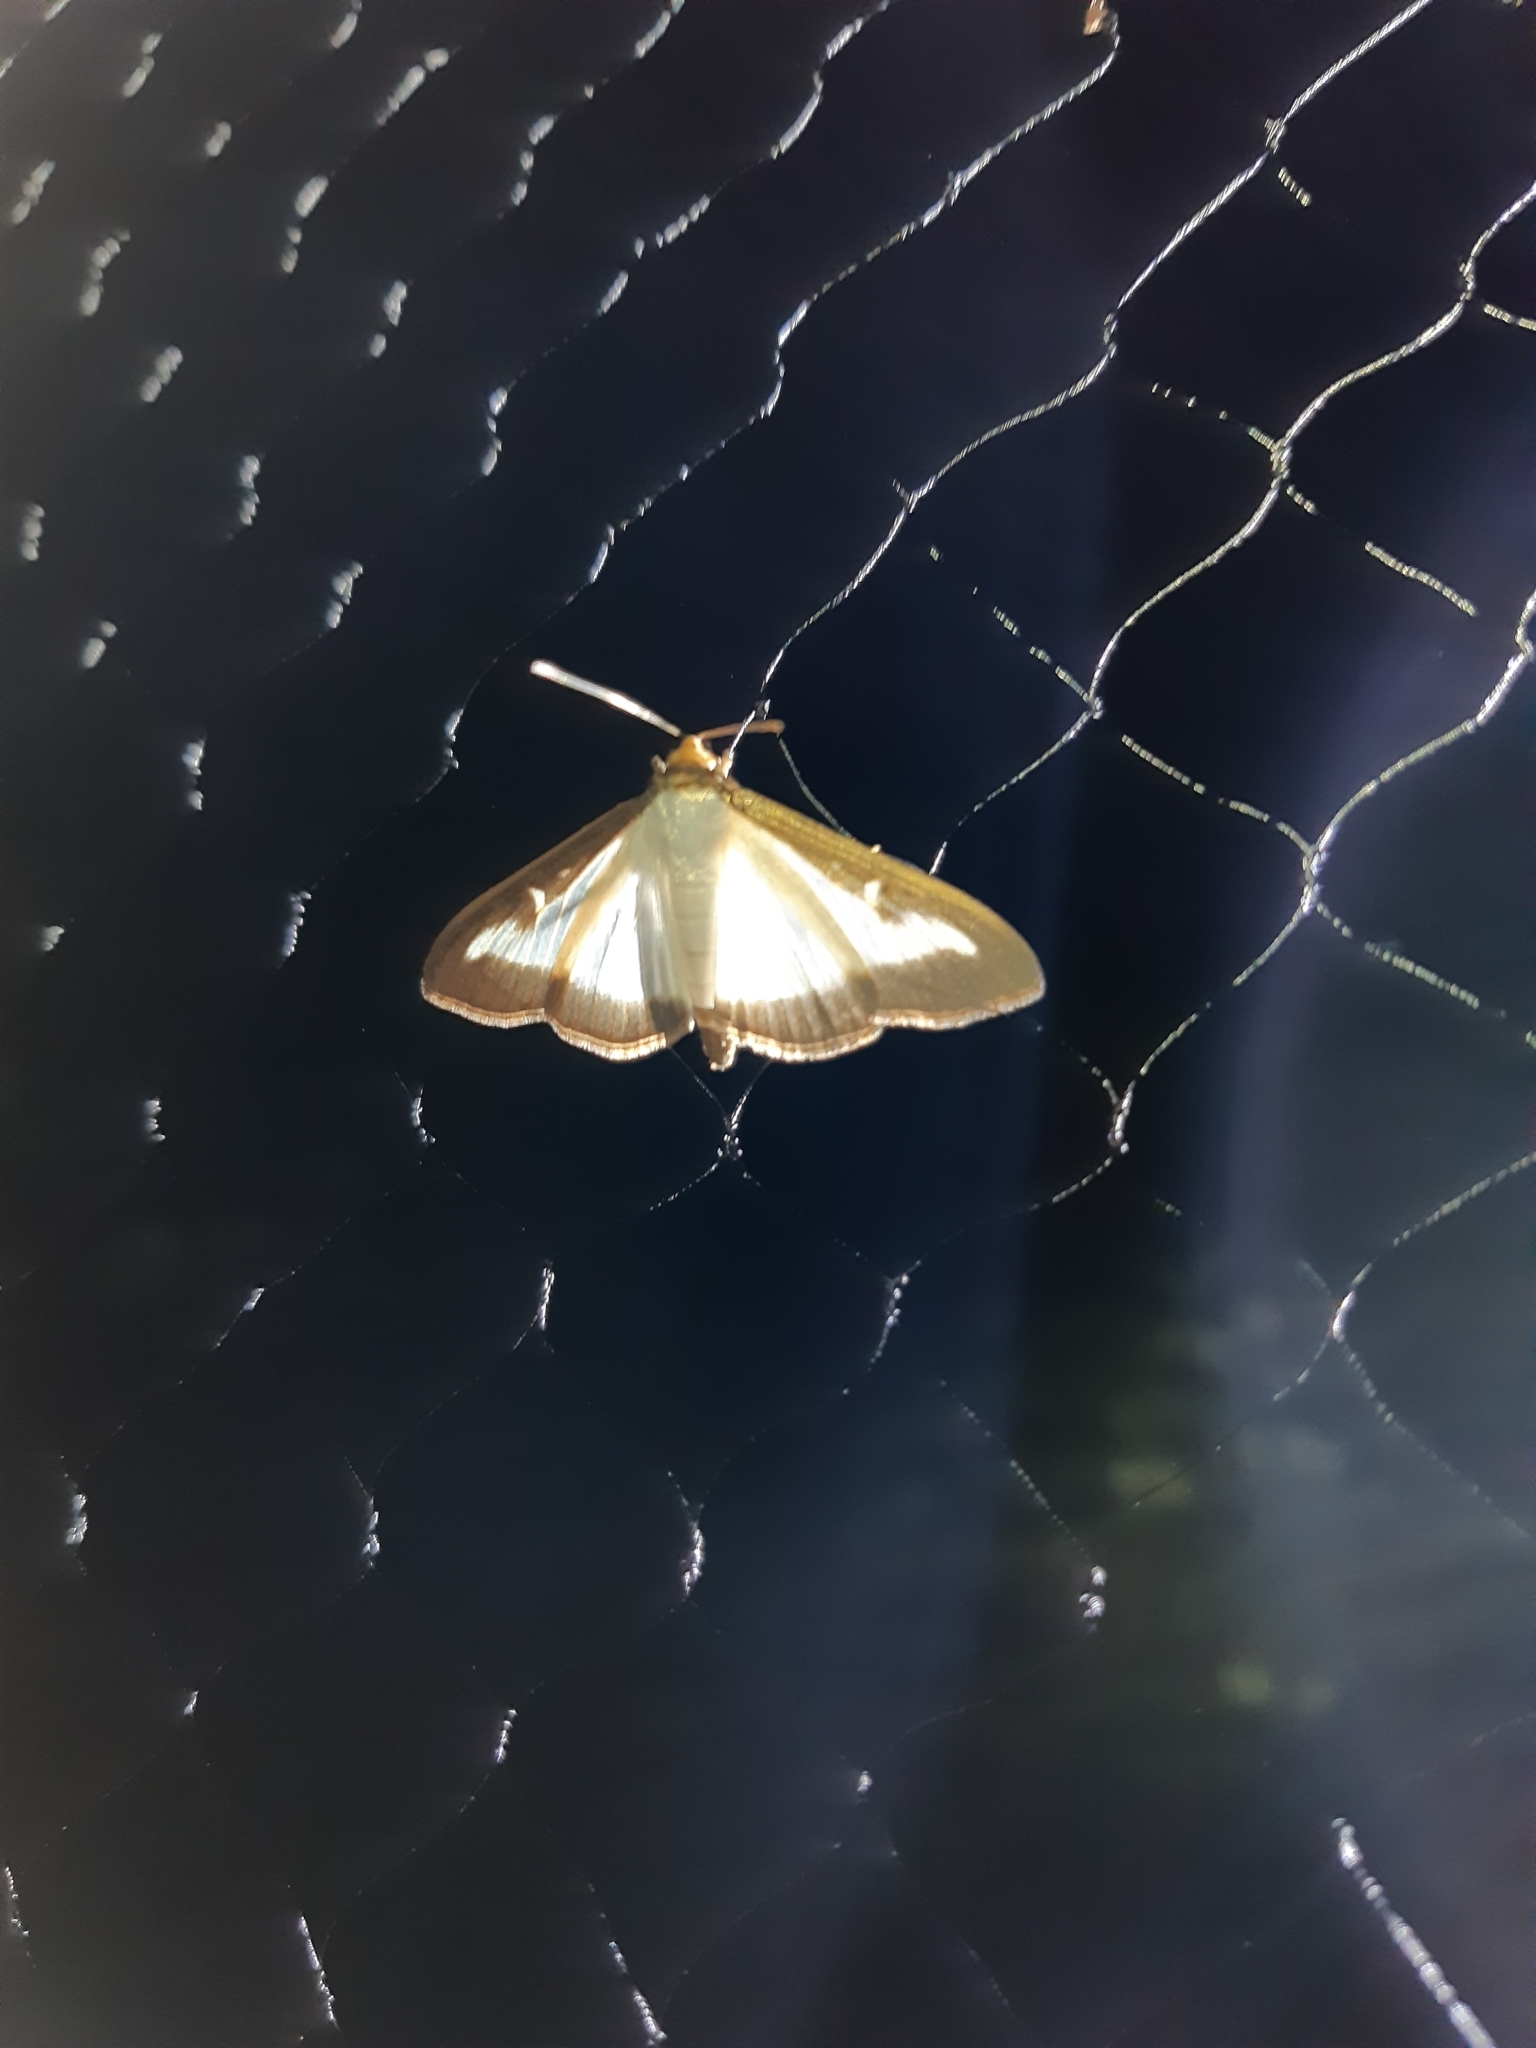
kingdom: Animalia
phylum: Arthropoda
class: Insecta
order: Lepidoptera
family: Crambidae
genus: Cydalima
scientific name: Cydalima perspectalis
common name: Box tree moth
